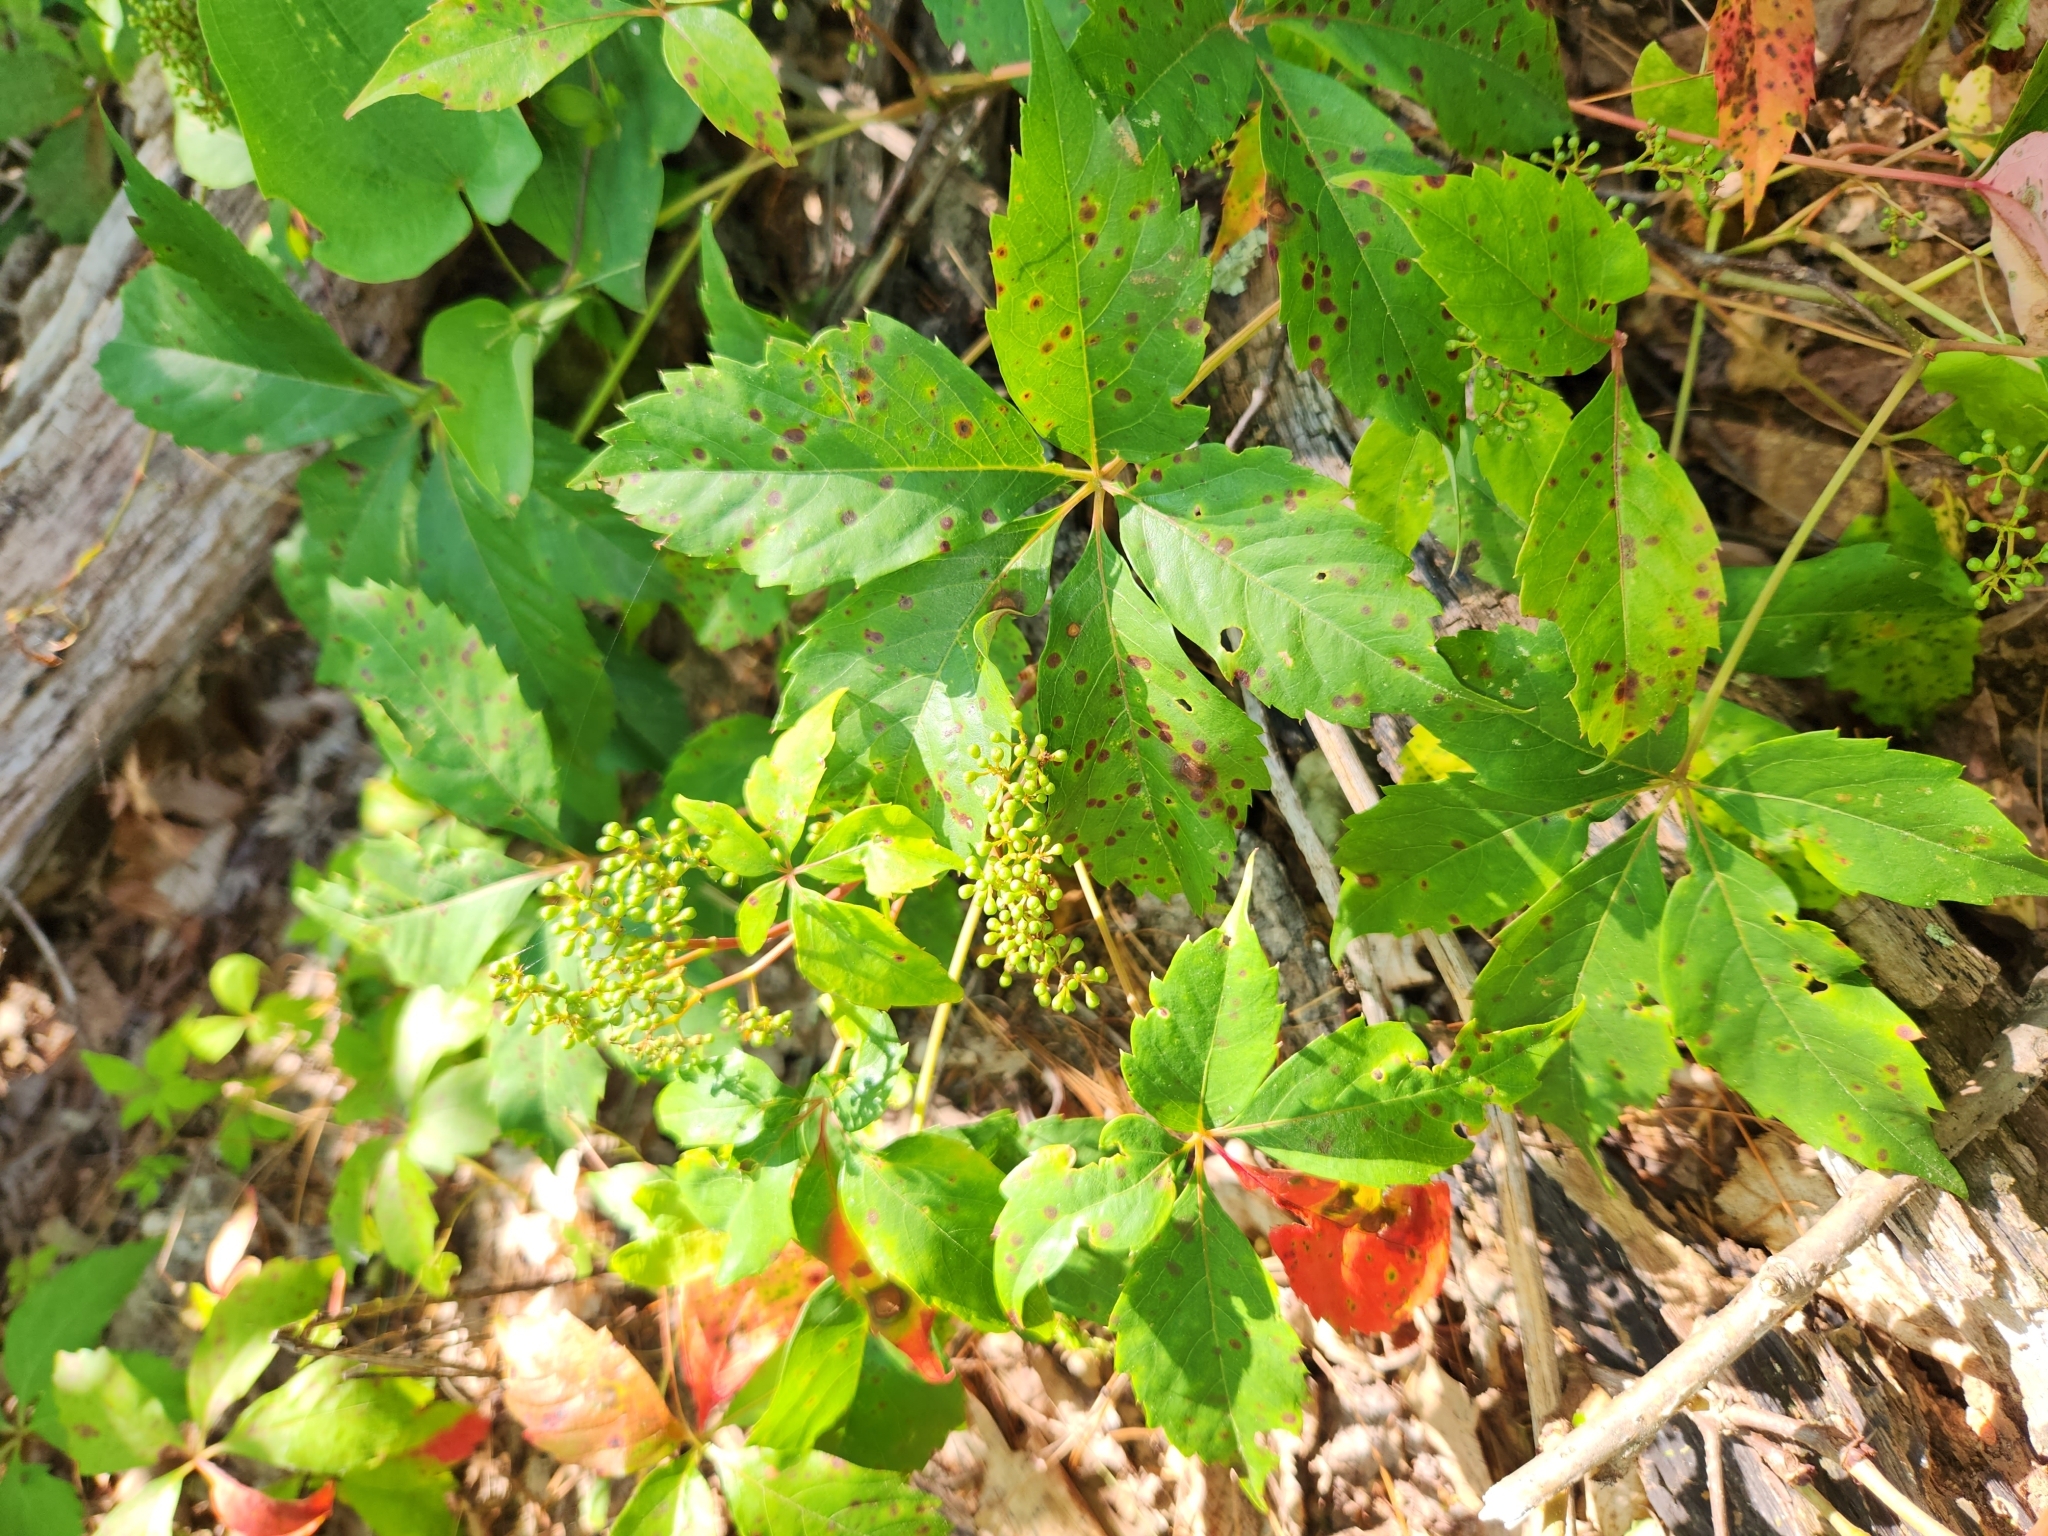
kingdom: Plantae
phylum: Tracheophyta
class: Magnoliopsida
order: Vitales
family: Vitaceae
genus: Parthenocissus
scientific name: Parthenocissus quinquefolia
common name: Virginia-creeper
